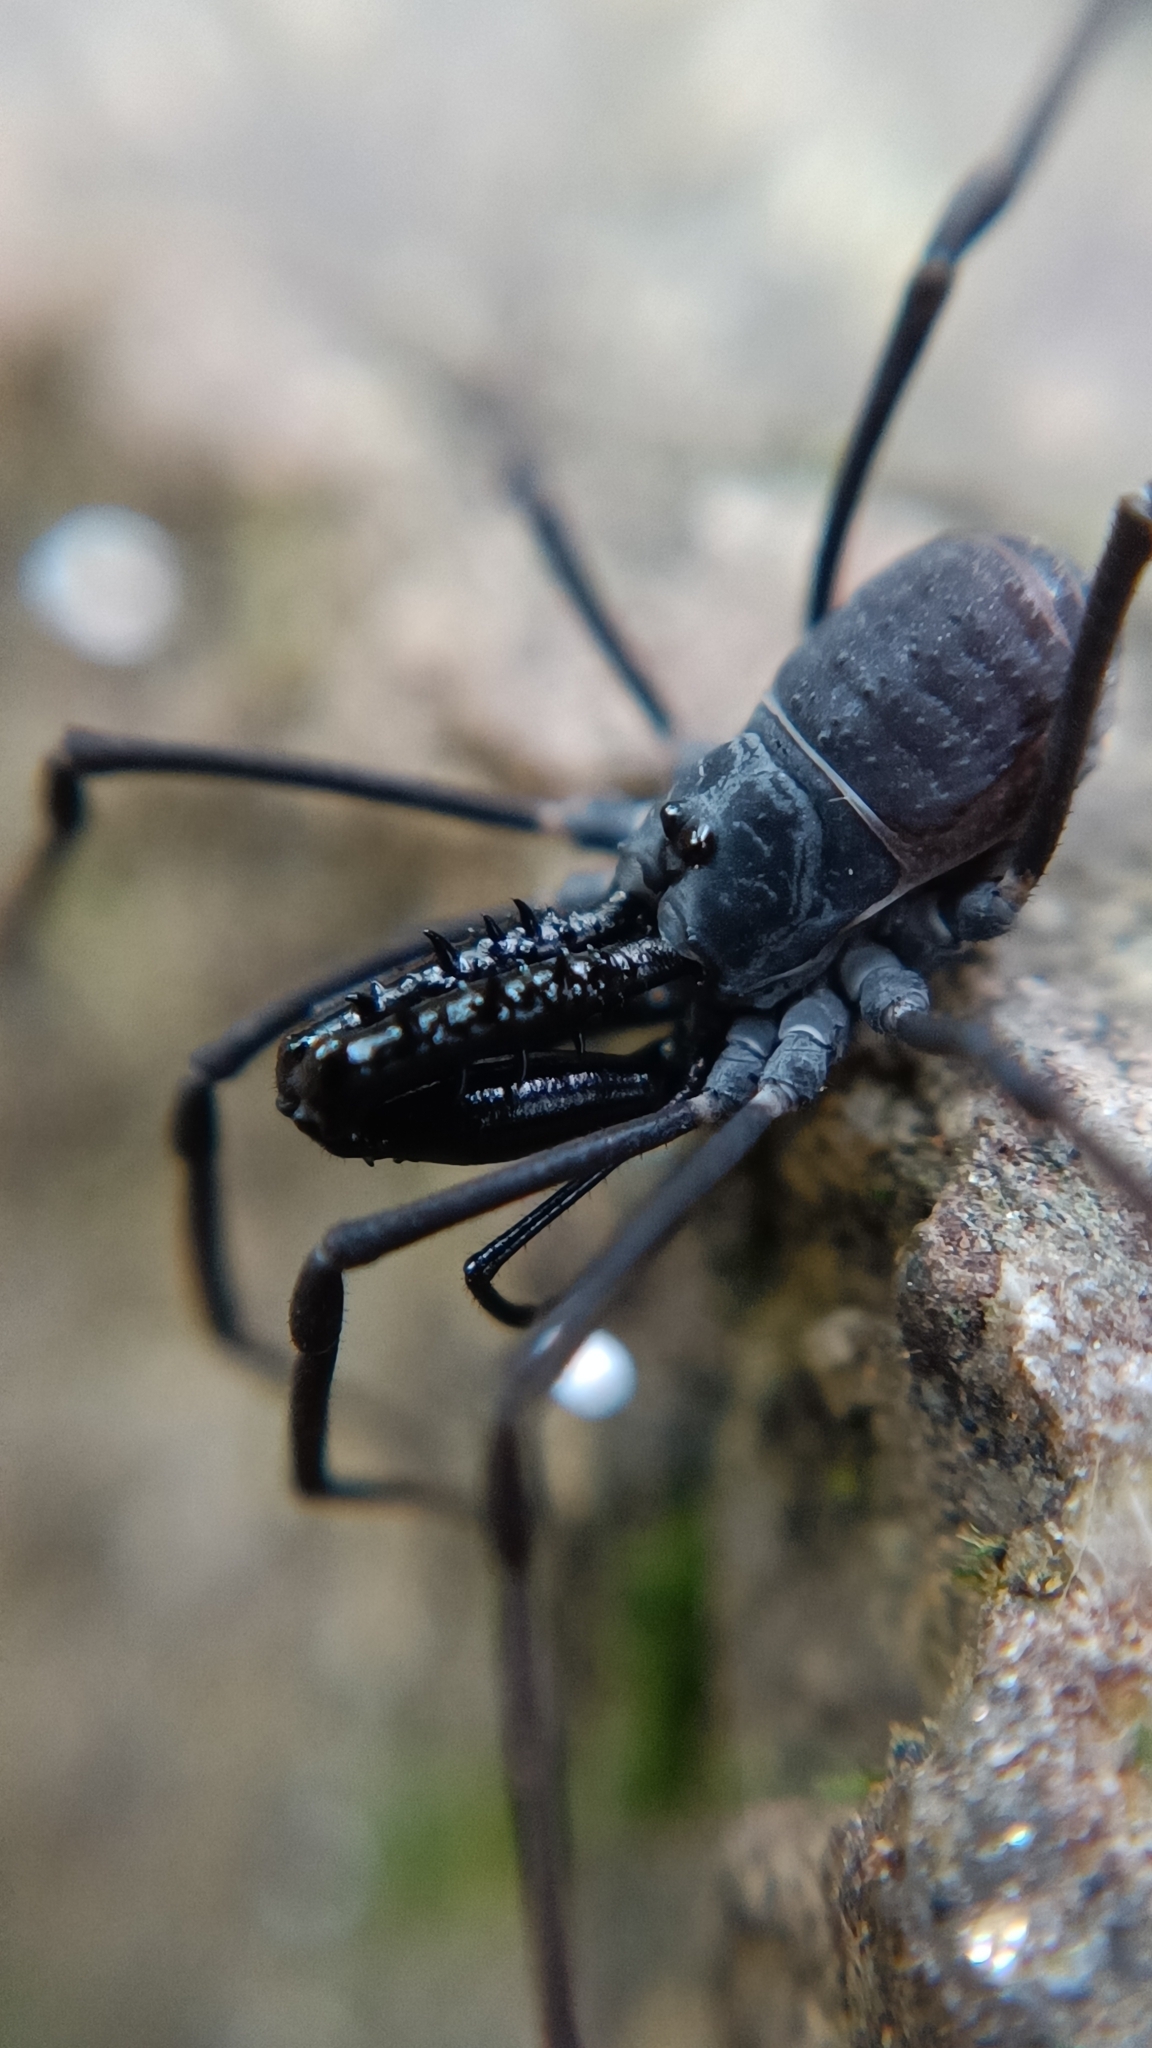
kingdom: Animalia
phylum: Arthropoda
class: Arachnida
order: Opiliones
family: Ischyropsalididae
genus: Ischyropsalis
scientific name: Ischyropsalis luteipes
